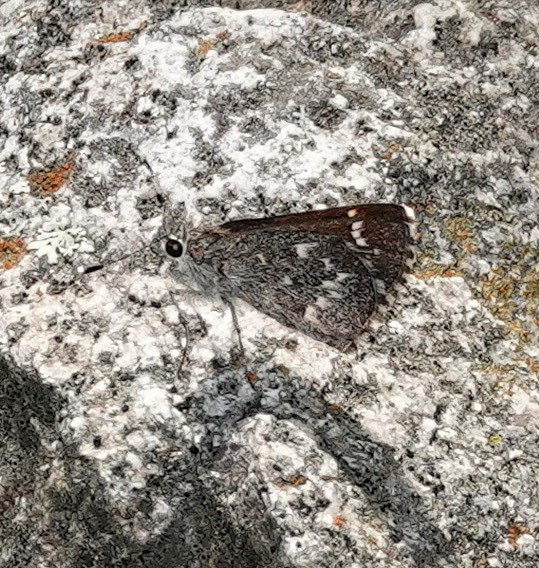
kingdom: Animalia
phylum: Arthropoda
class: Insecta
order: Lepidoptera
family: Hesperiidae
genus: Mastor
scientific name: Mastor aenus
